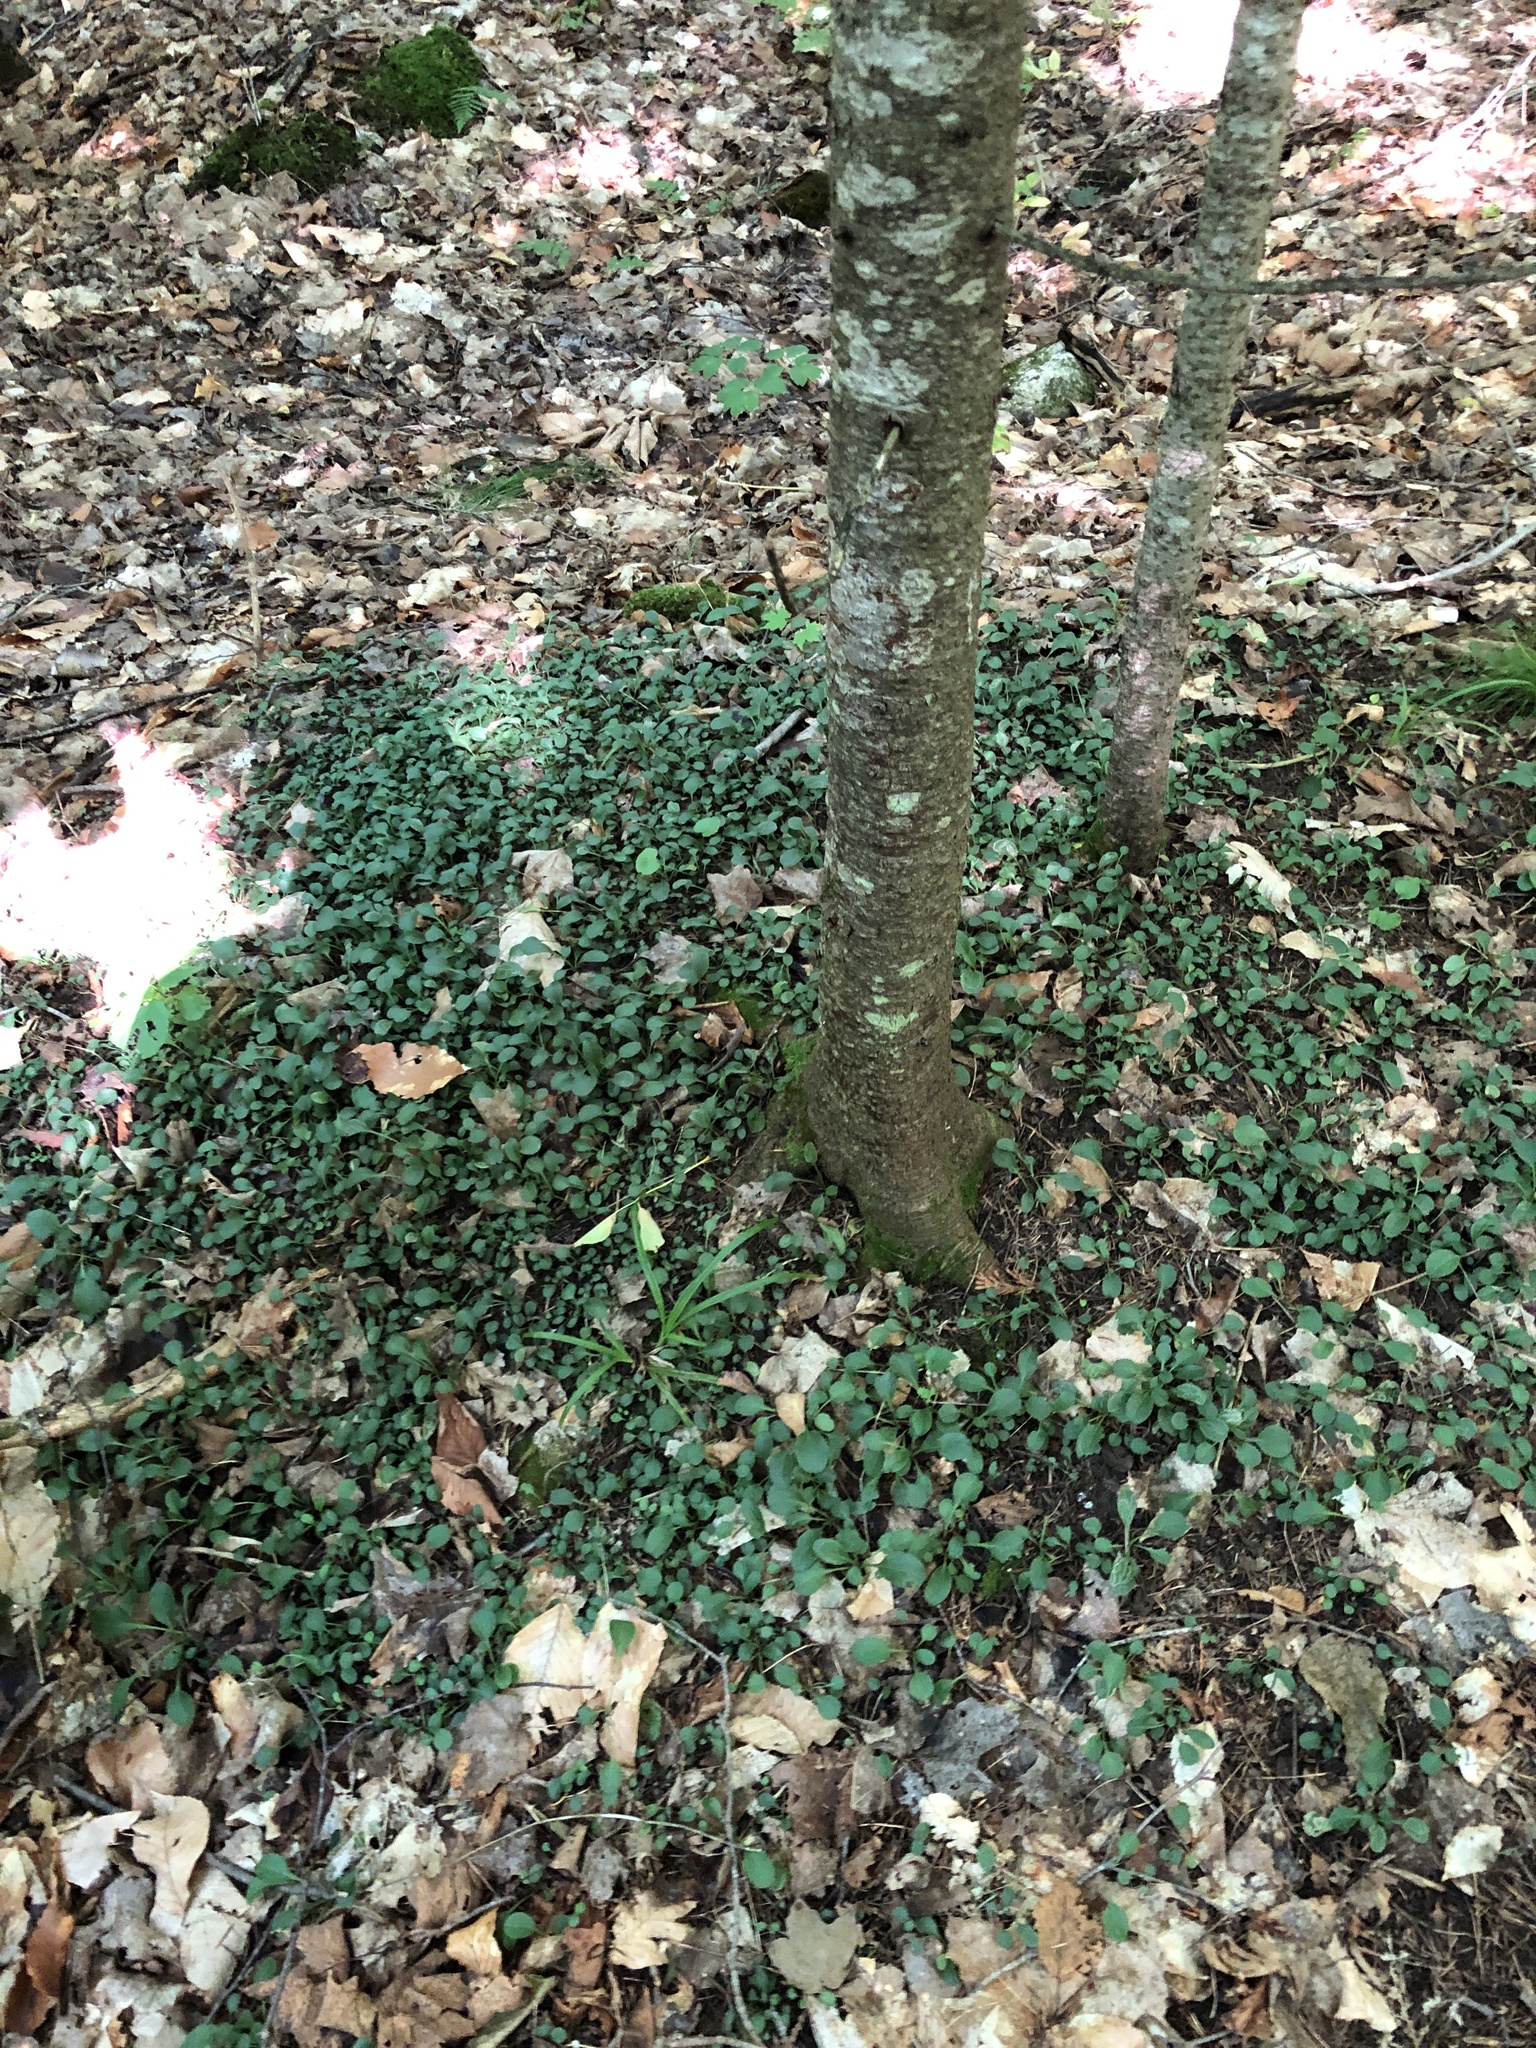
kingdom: Plantae
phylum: Tracheophyta
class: Magnoliopsida
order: Asterales
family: Asteraceae
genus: Packera
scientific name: Packera obovata
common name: Round-leaf ragwort
